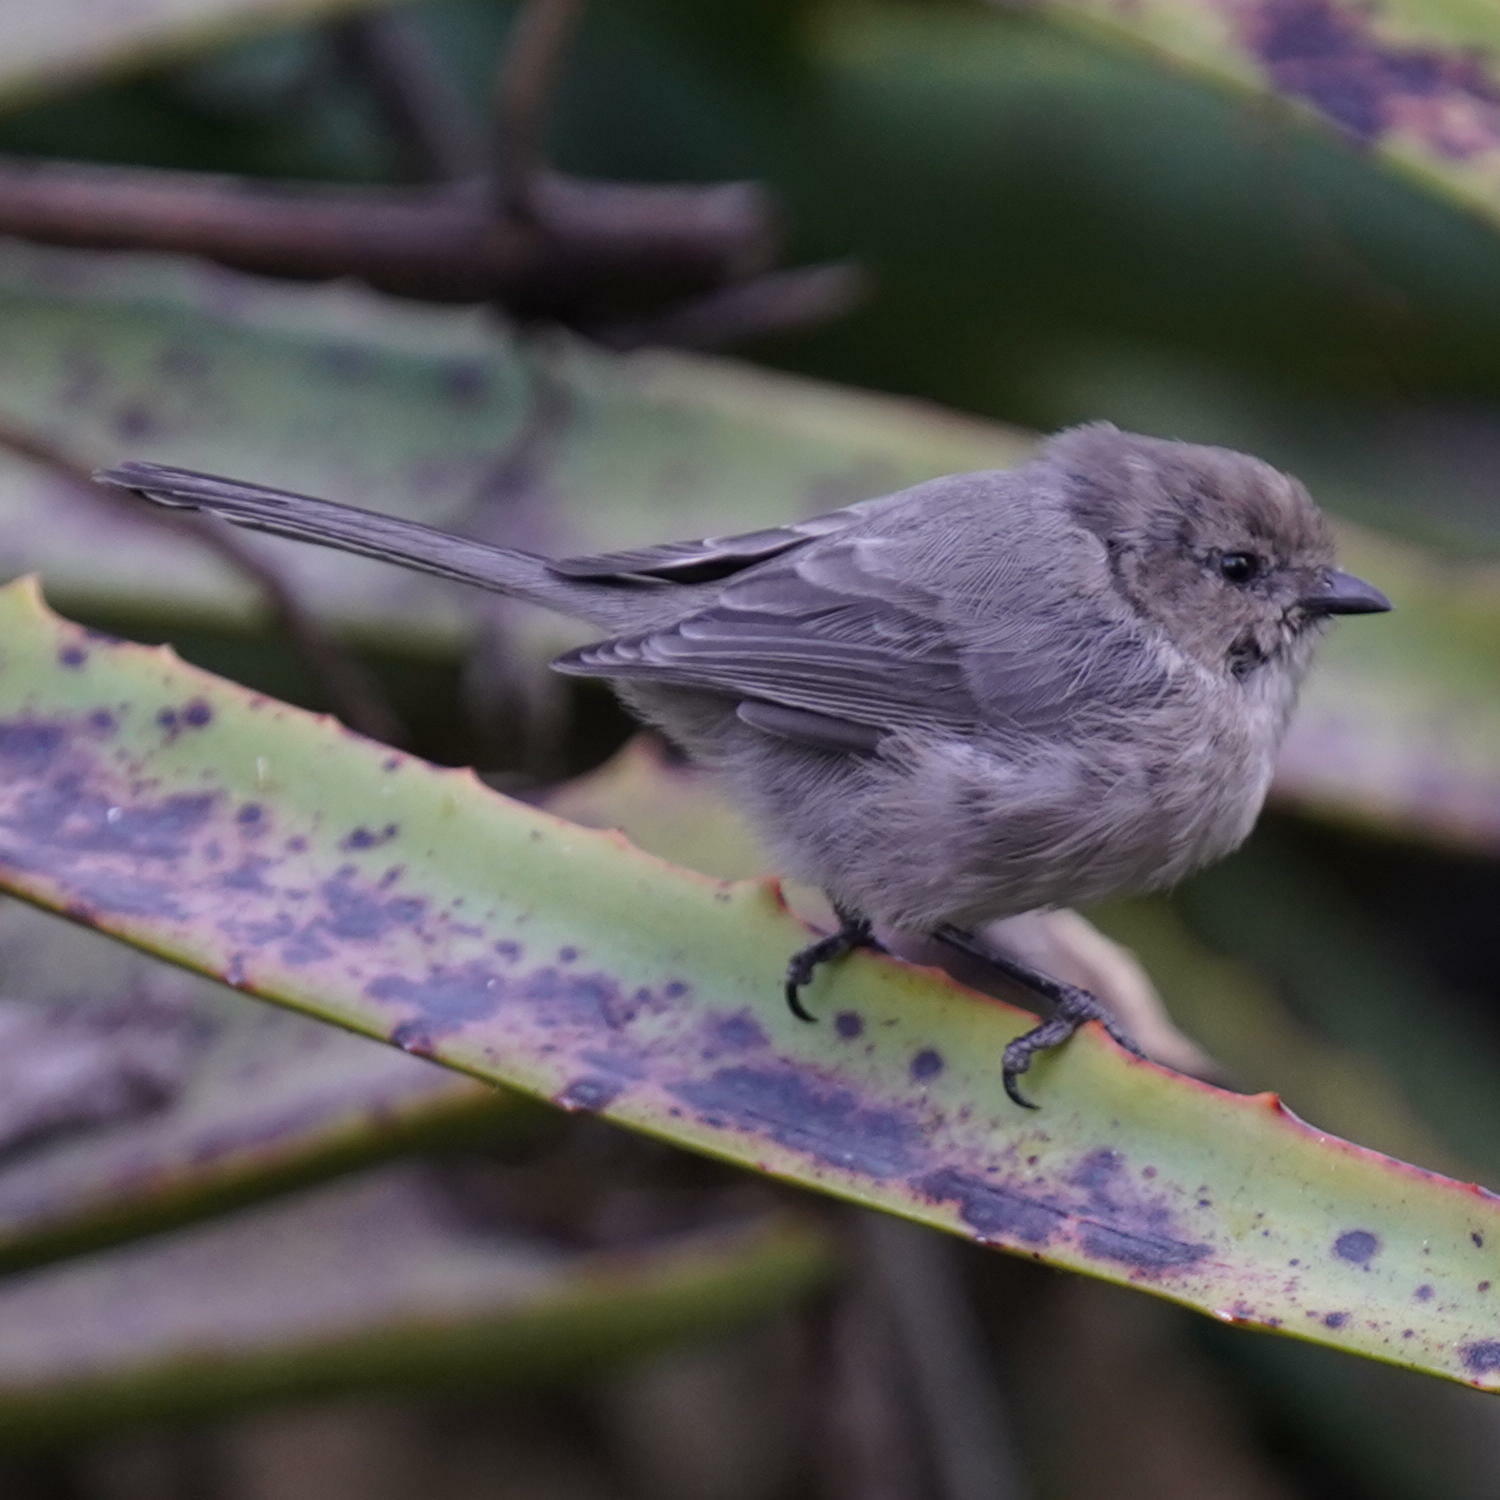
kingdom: Animalia
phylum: Chordata
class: Aves
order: Passeriformes
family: Aegithalidae
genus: Psaltriparus
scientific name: Psaltriparus minimus
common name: American bushtit
